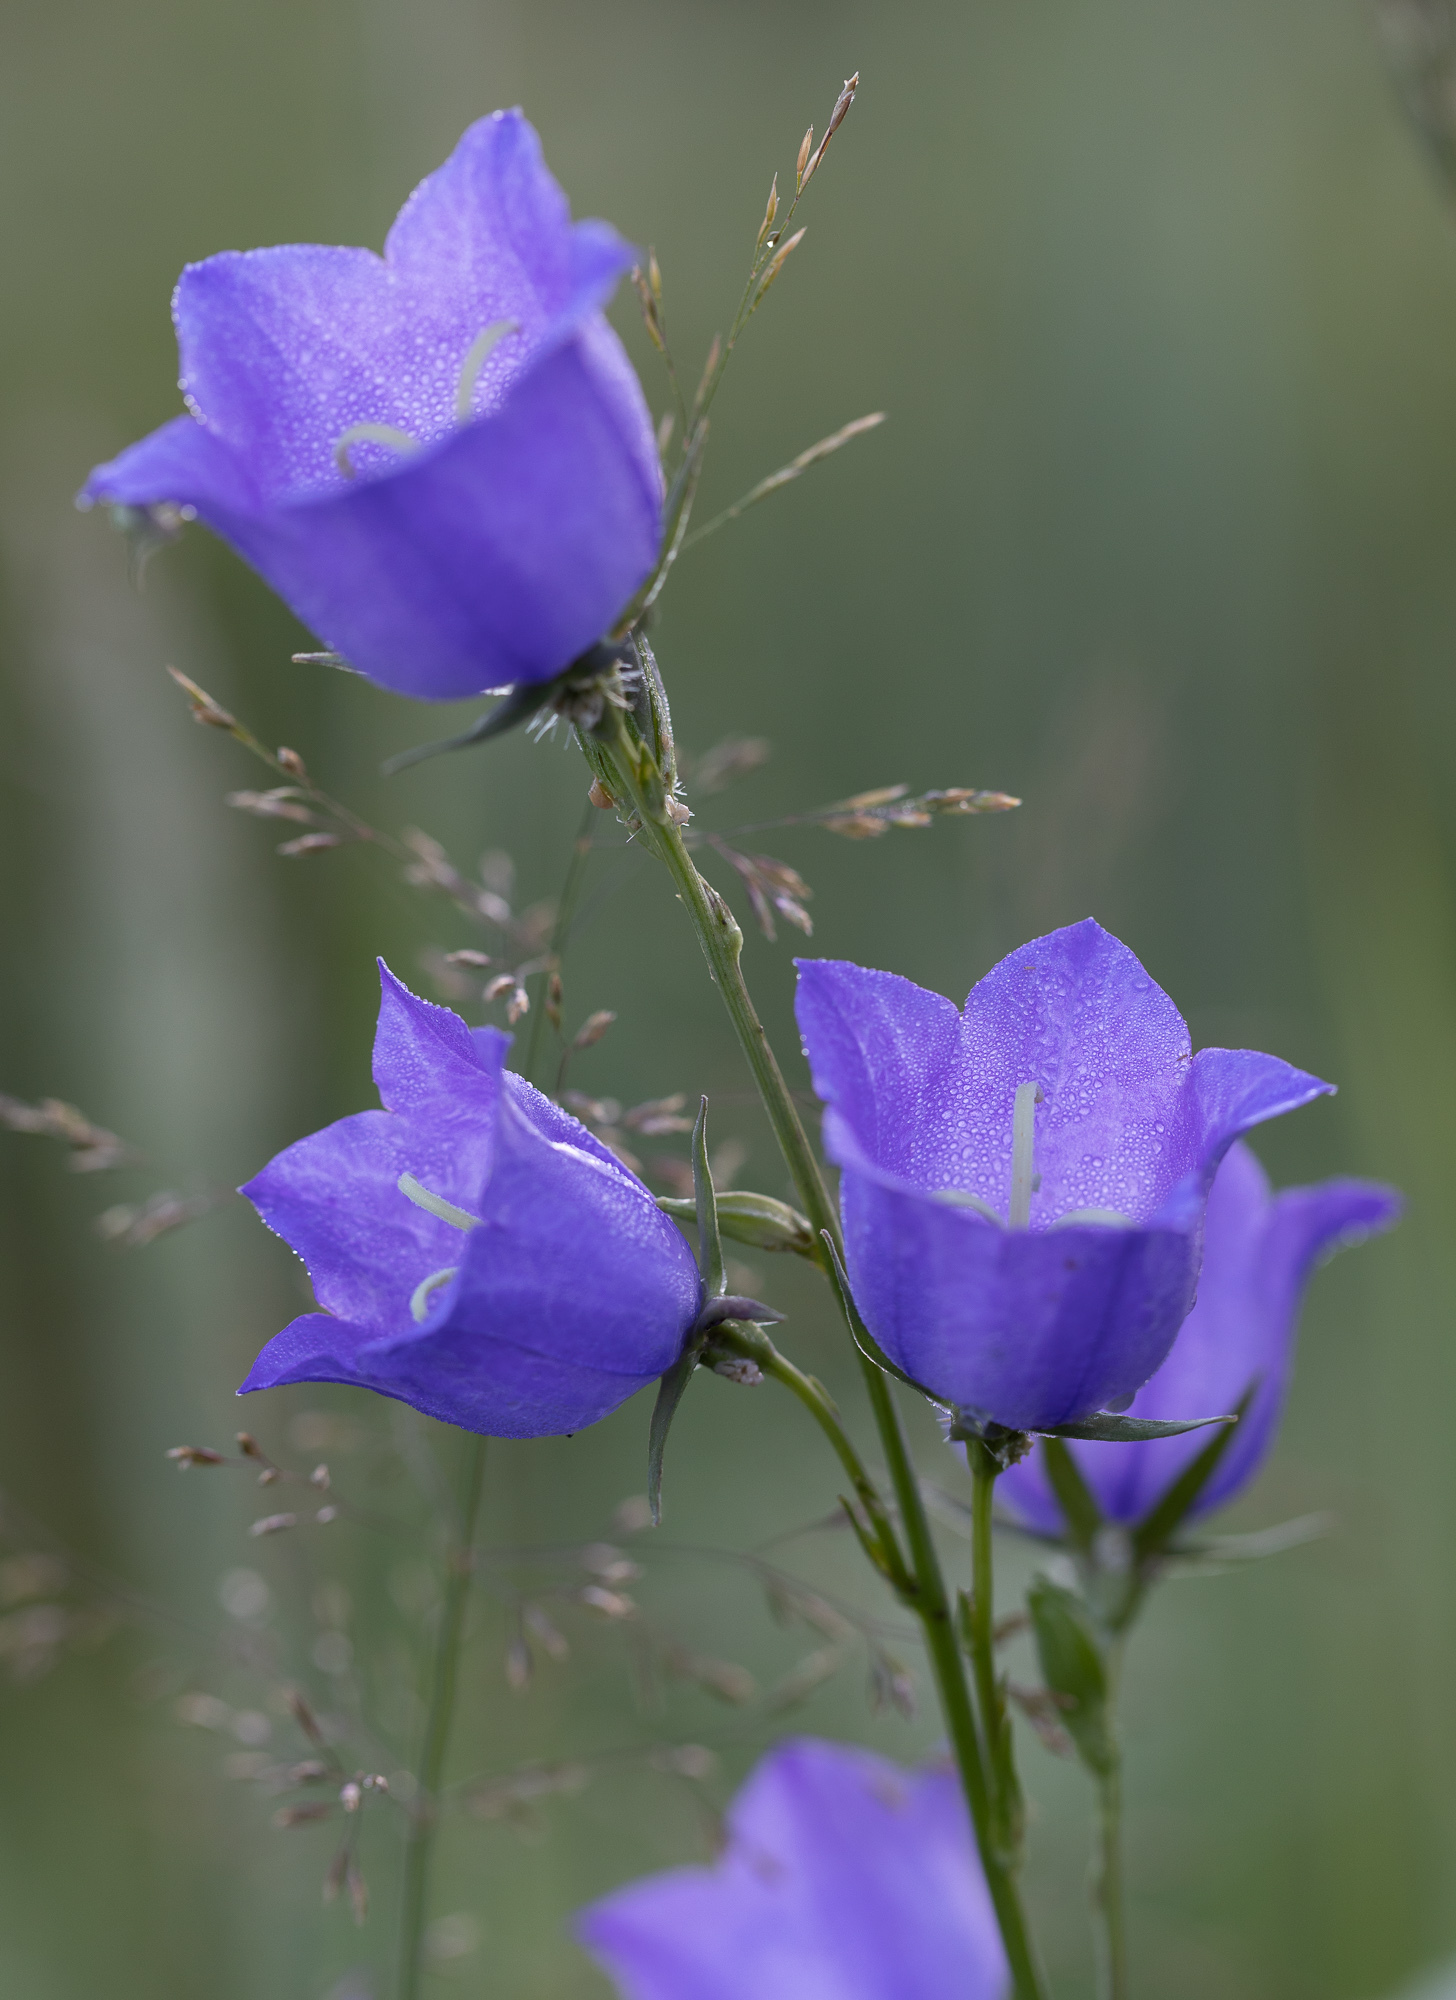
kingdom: Plantae
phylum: Tracheophyta
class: Magnoliopsida
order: Asterales
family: Campanulaceae
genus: Campanula
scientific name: Campanula persicifolia
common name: Peach-leaved bellflower
